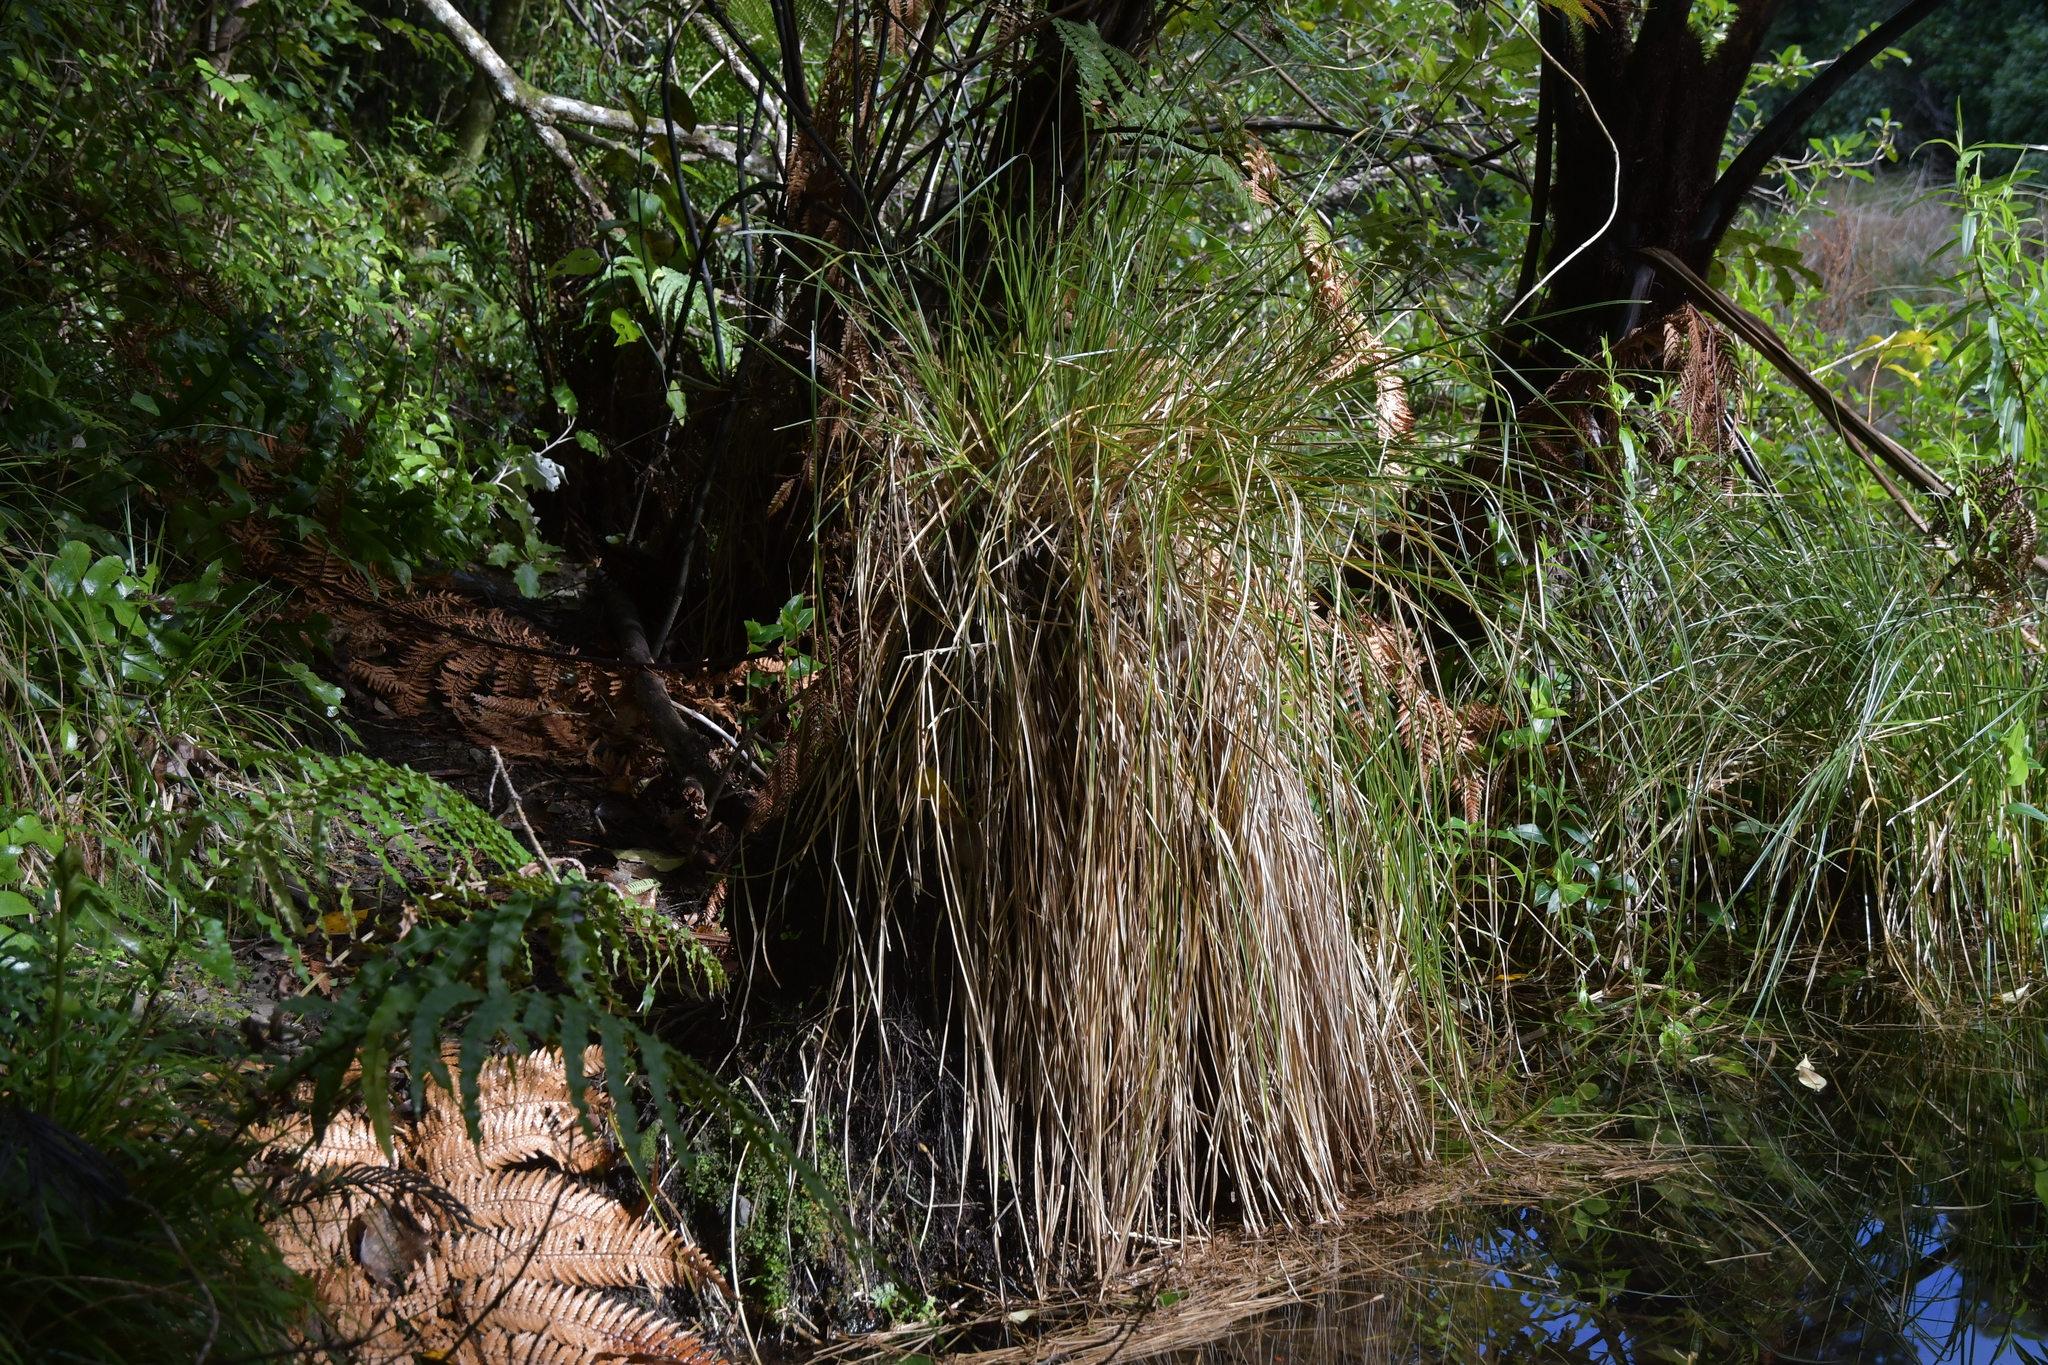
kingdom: Plantae
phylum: Tracheophyta
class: Liliopsida
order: Poales
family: Cyperaceae
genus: Carex
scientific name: Carex secta
